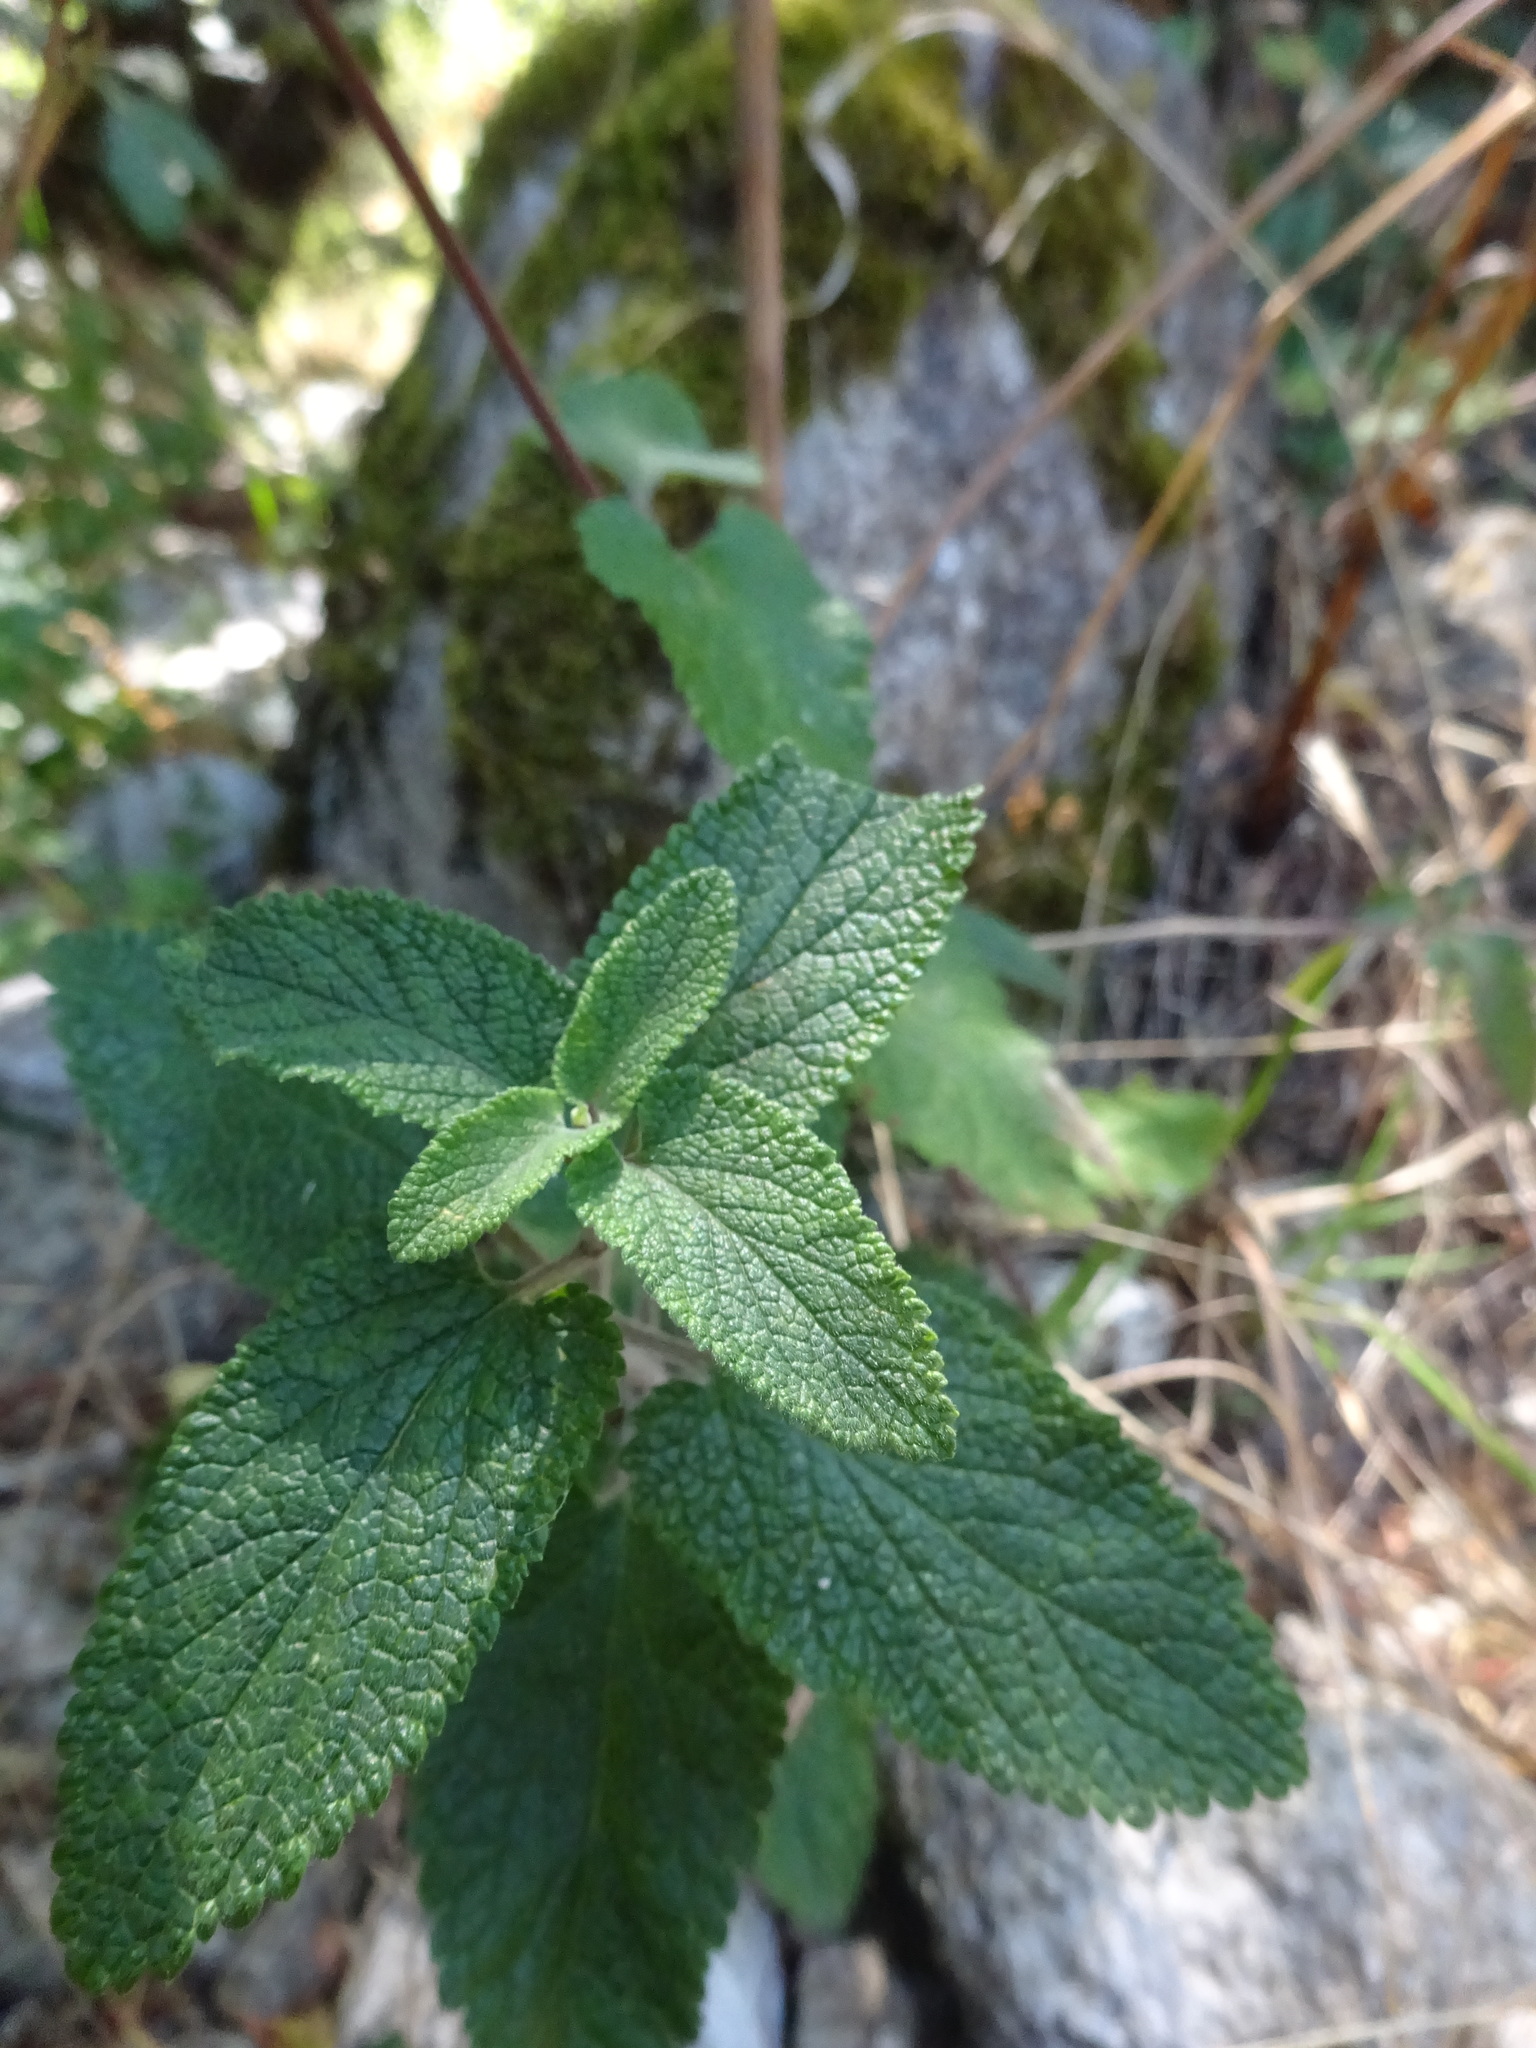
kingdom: Plantae
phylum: Tracheophyta
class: Magnoliopsida
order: Lamiales
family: Lamiaceae
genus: Teucrium
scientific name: Teucrium scorodonia
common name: Woodland germander
